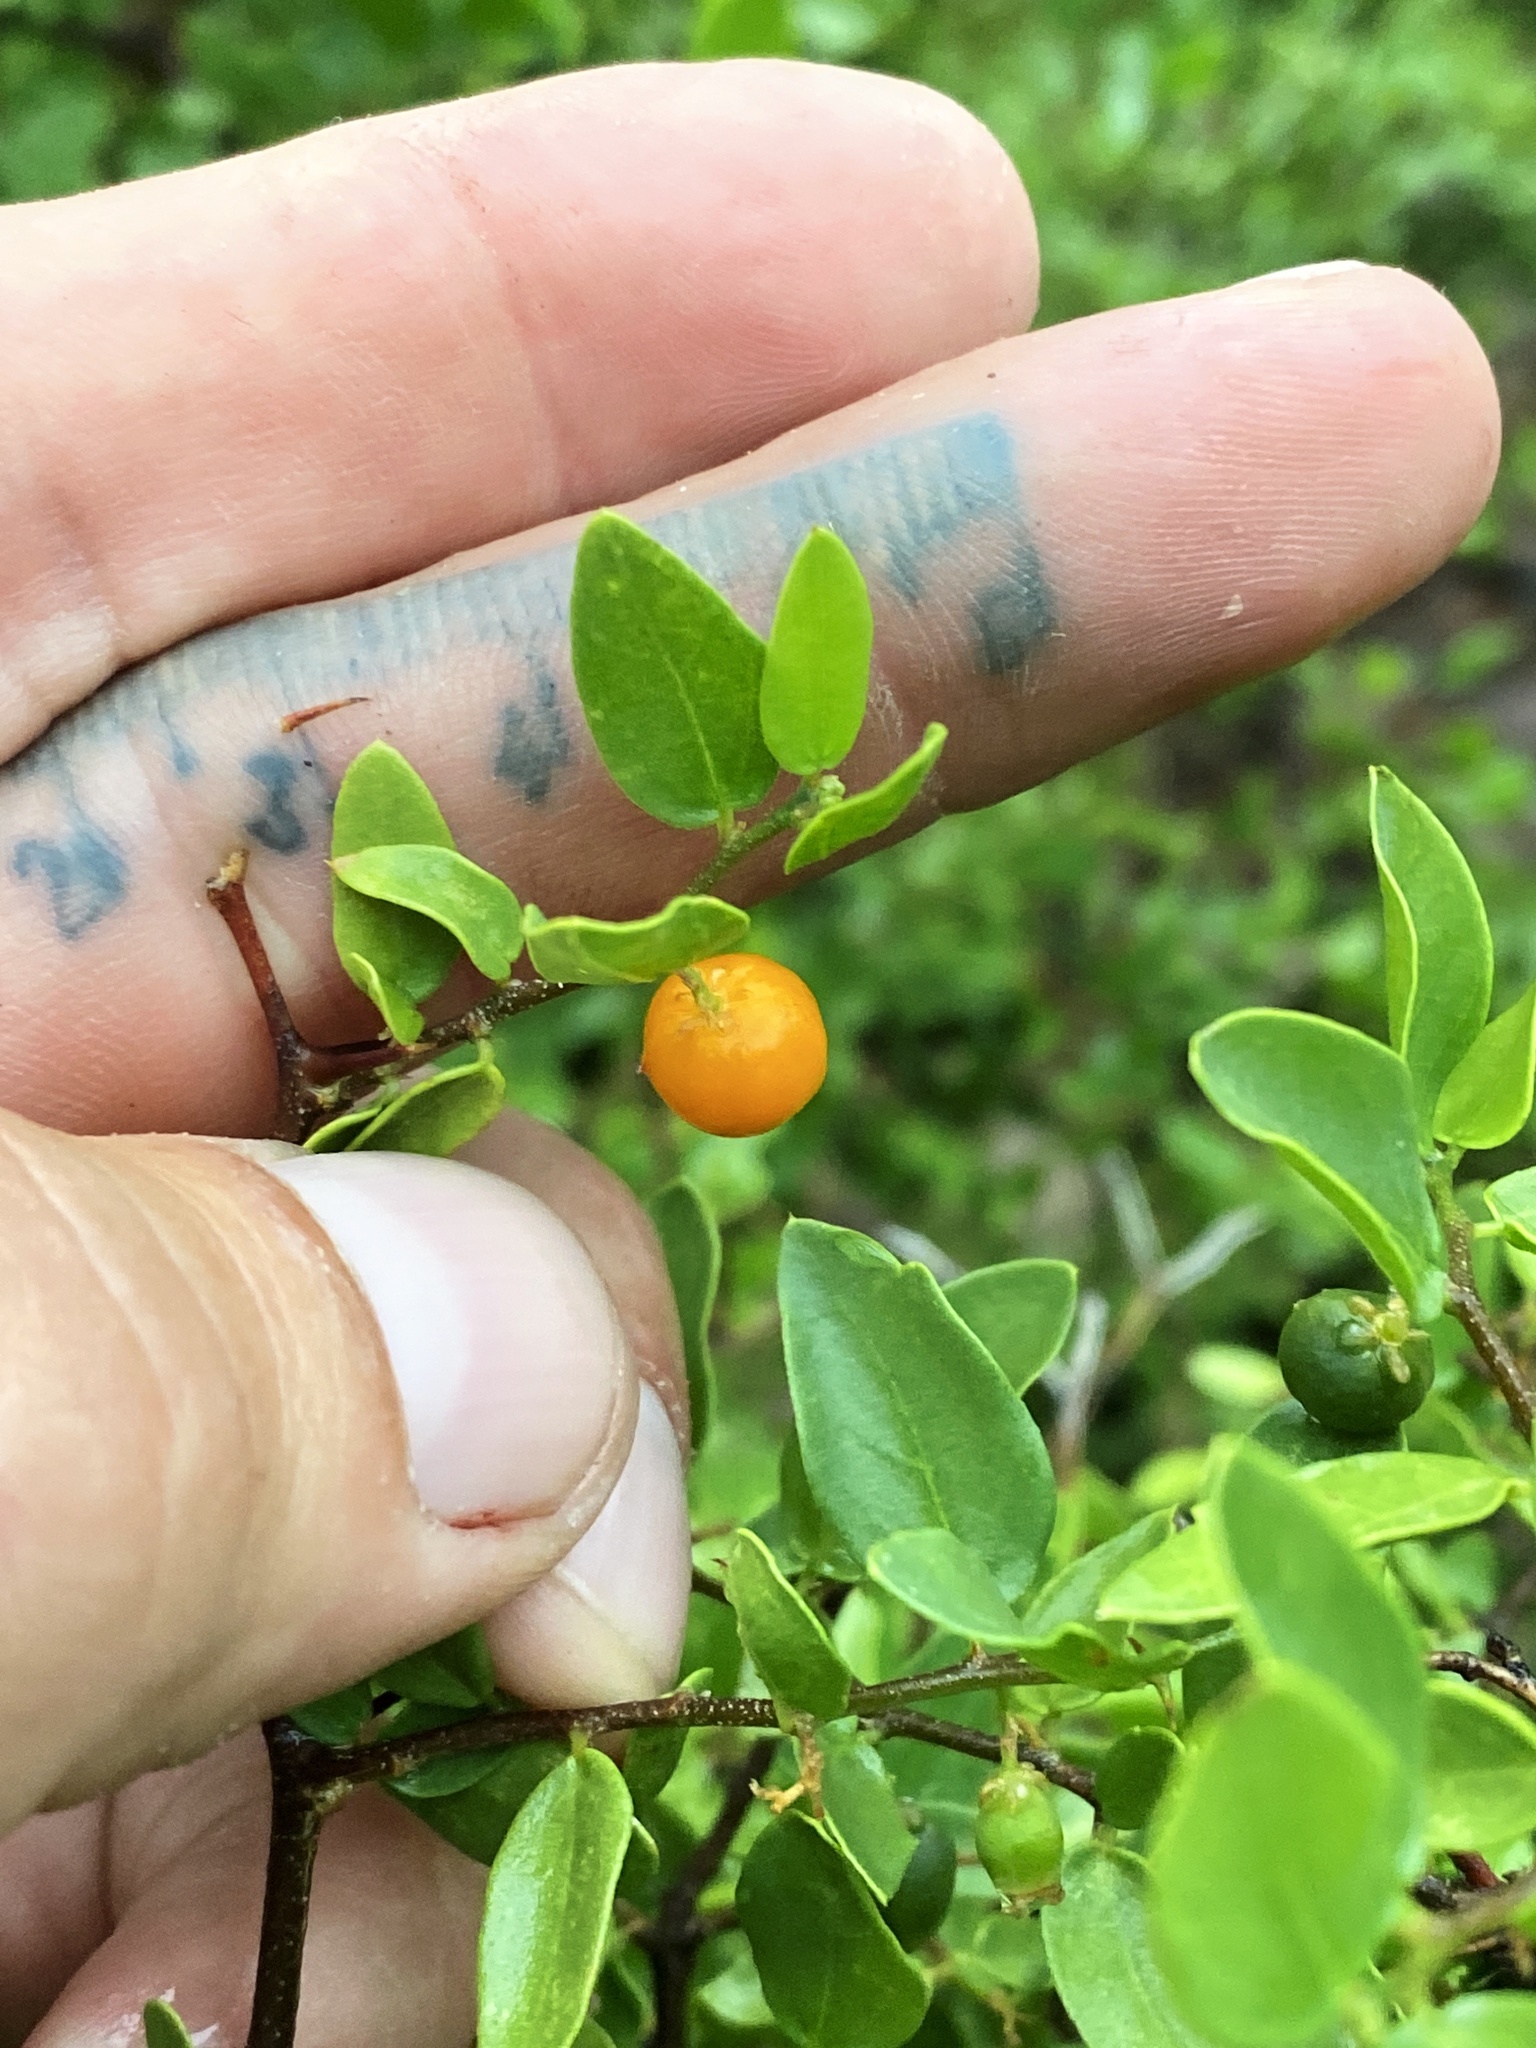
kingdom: Plantae
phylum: Tracheophyta
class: Magnoliopsida
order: Rosales
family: Cannabaceae
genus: Celtis
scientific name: Celtis pallida
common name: Desert hackberry
